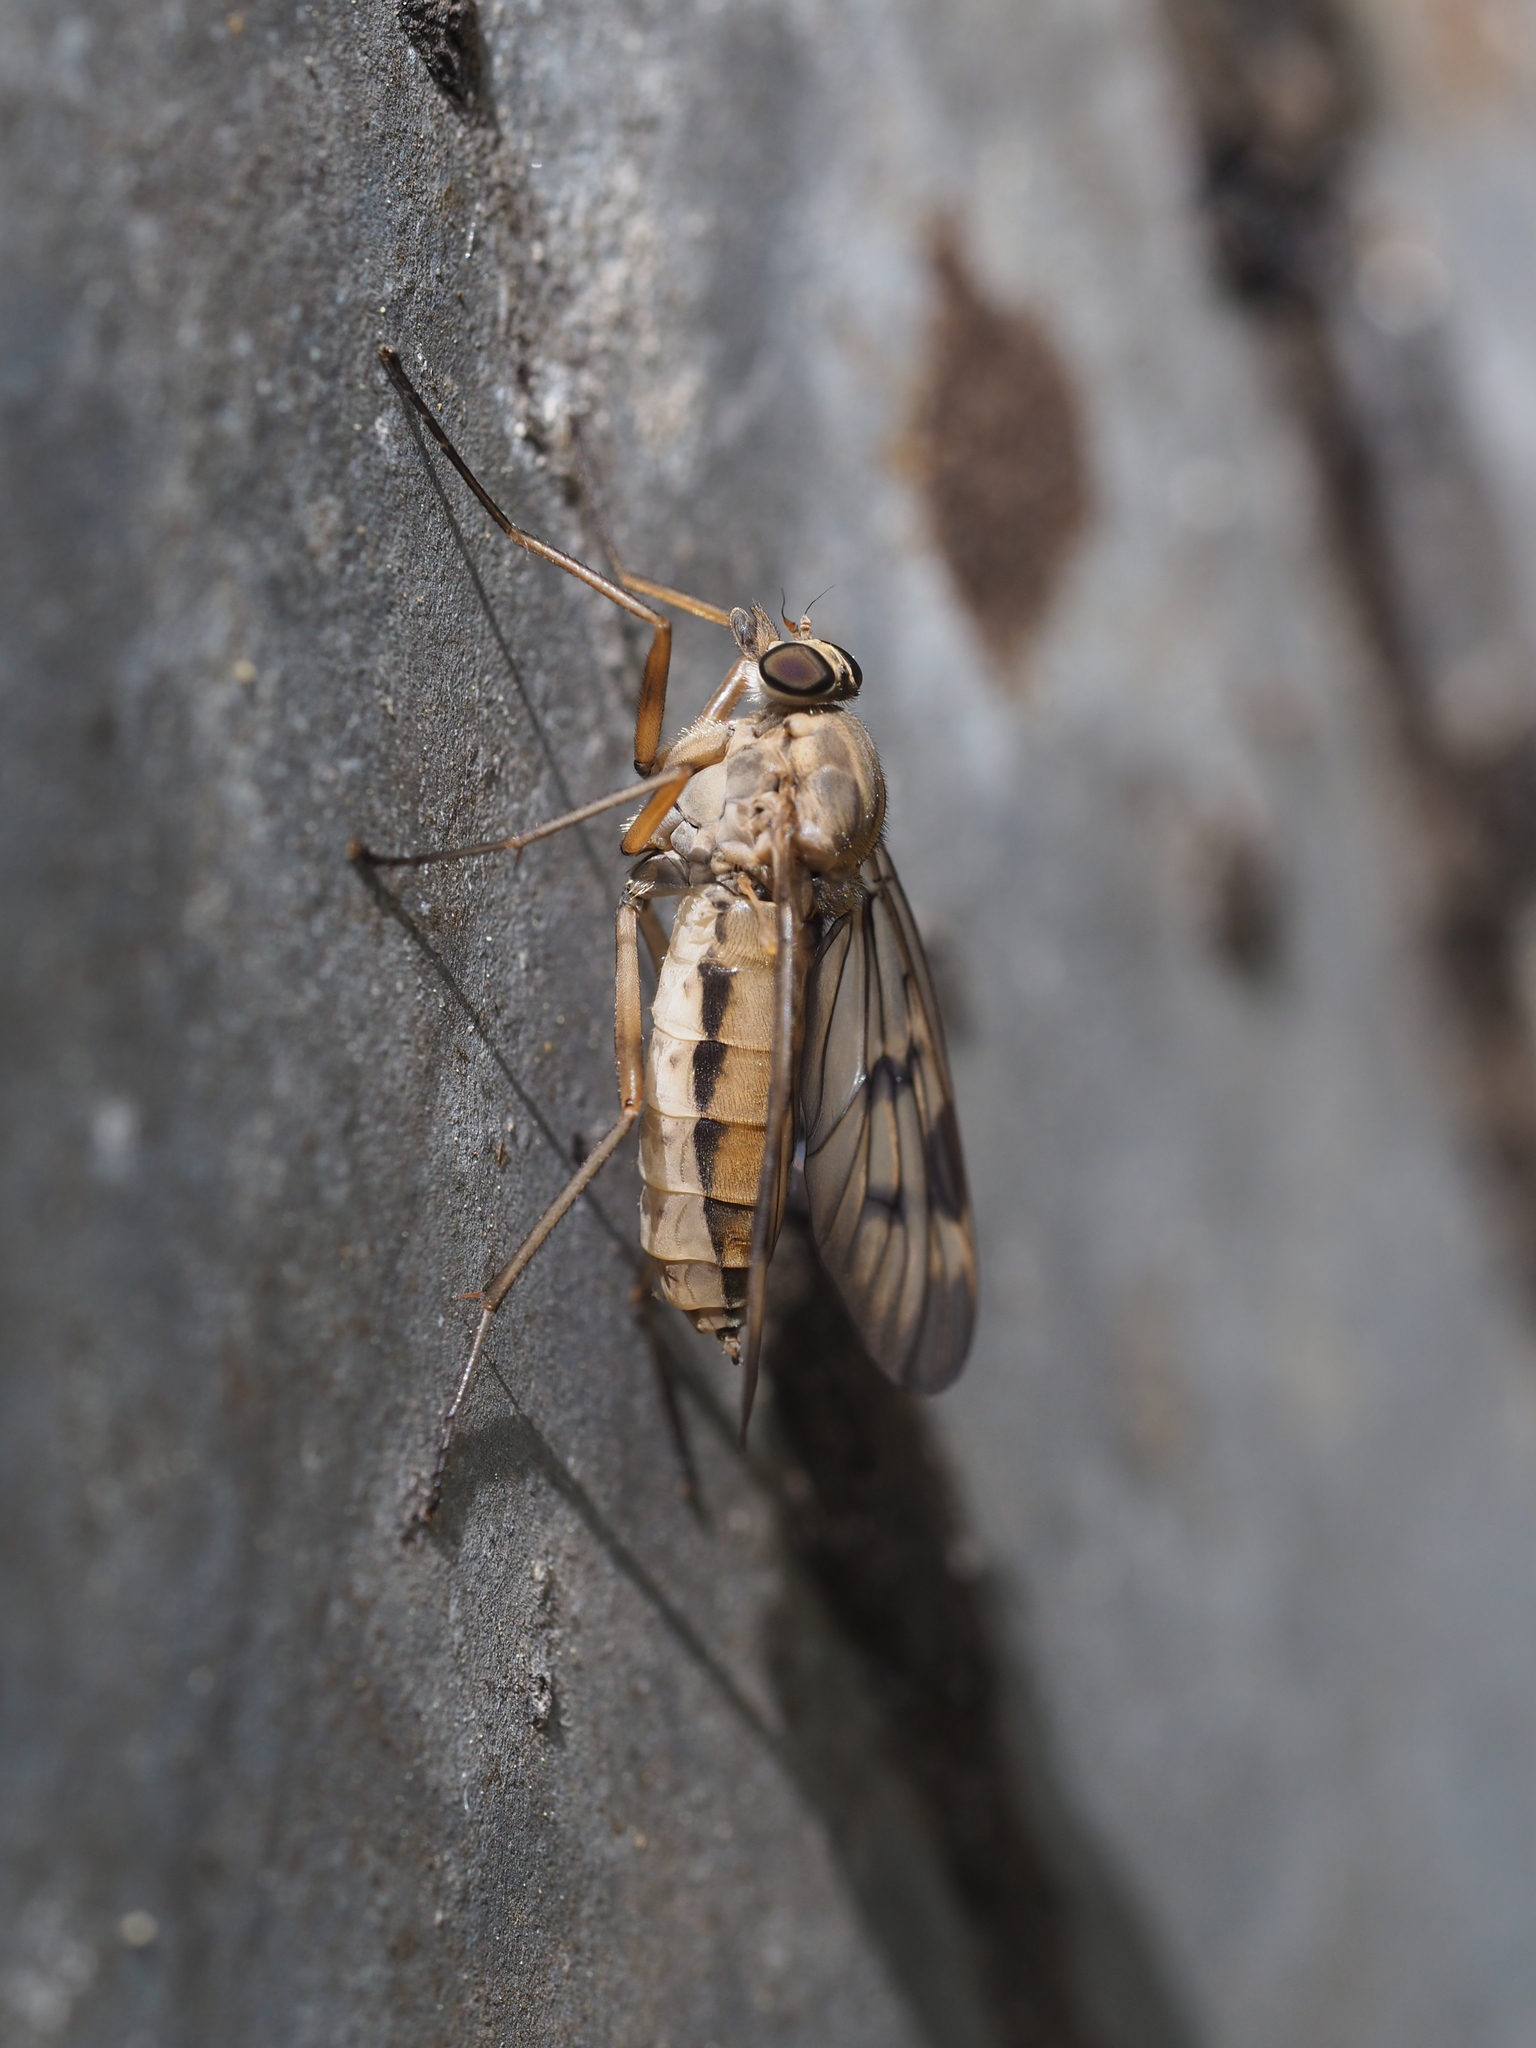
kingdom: Animalia
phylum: Arthropoda
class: Insecta
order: Diptera
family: Rhagionidae
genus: Rhagio
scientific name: Rhagio scolopacea
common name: Downlooker snipefly
